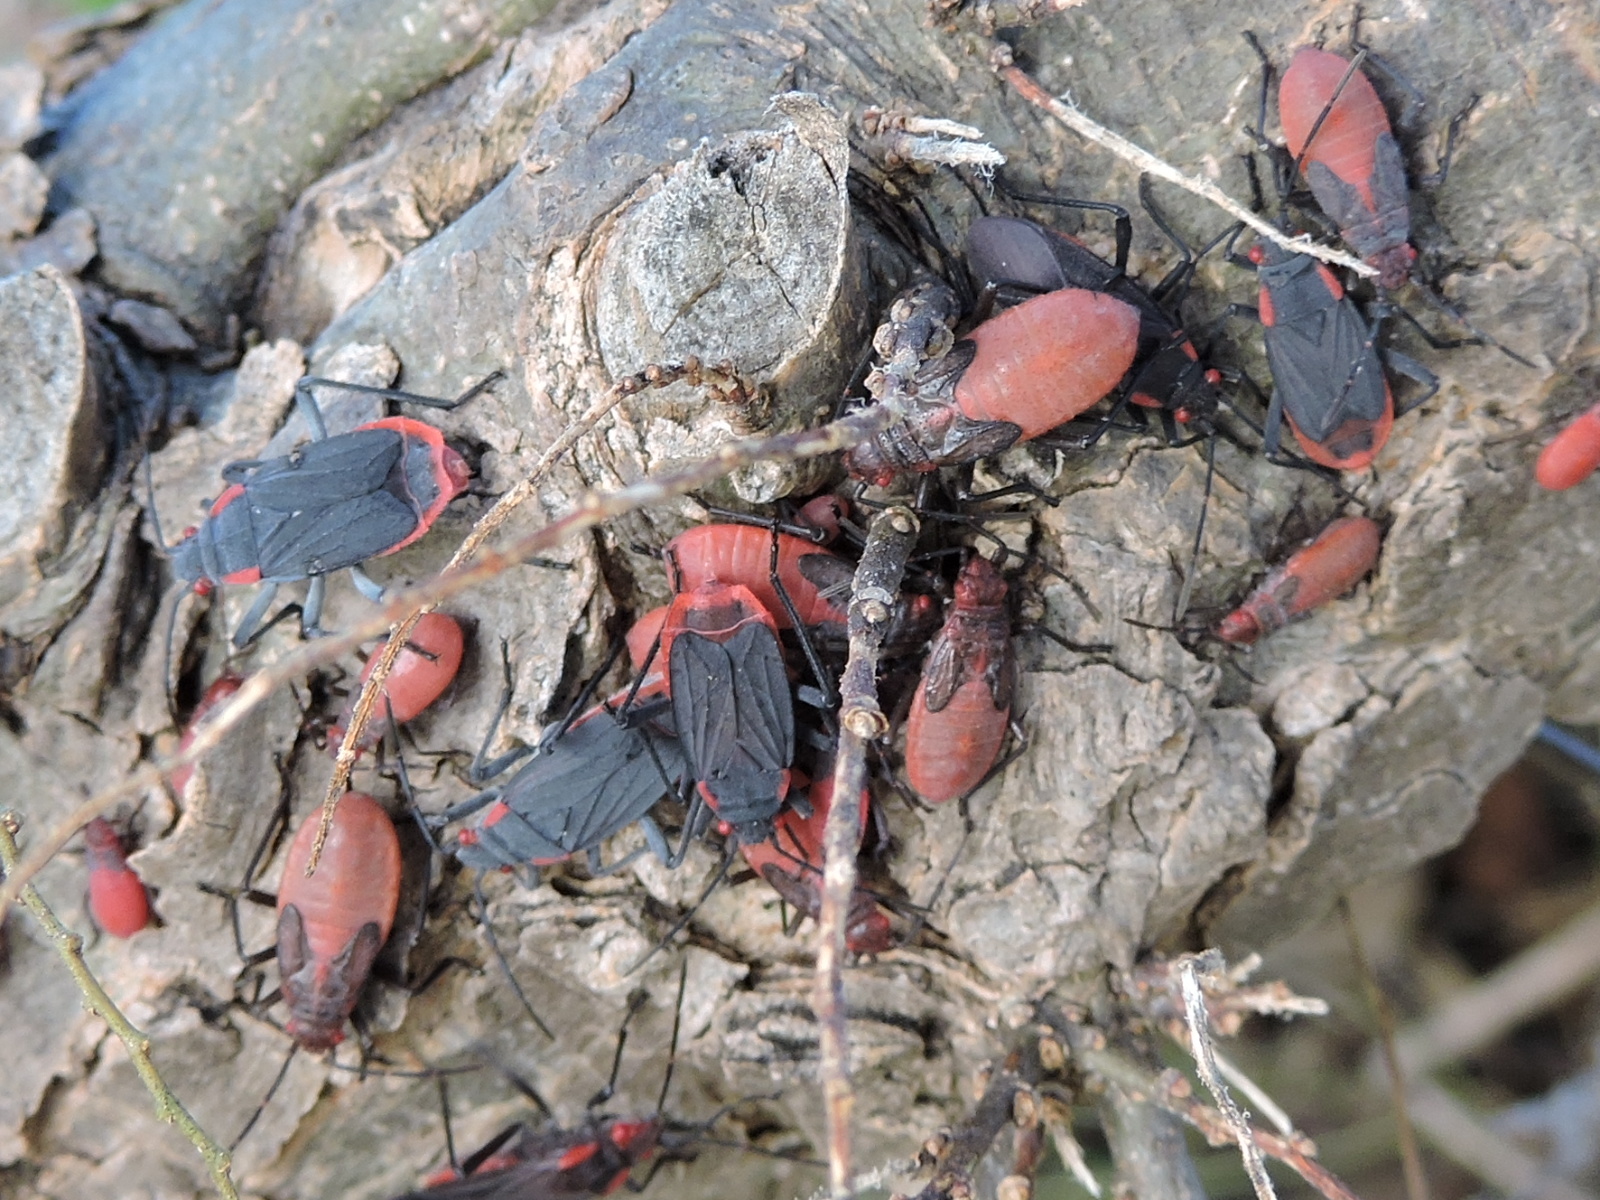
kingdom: Animalia
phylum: Arthropoda
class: Insecta
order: Hemiptera
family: Rhopalidae
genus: Jadera
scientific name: Jadera haematoloma
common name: Red-shouldered bug
